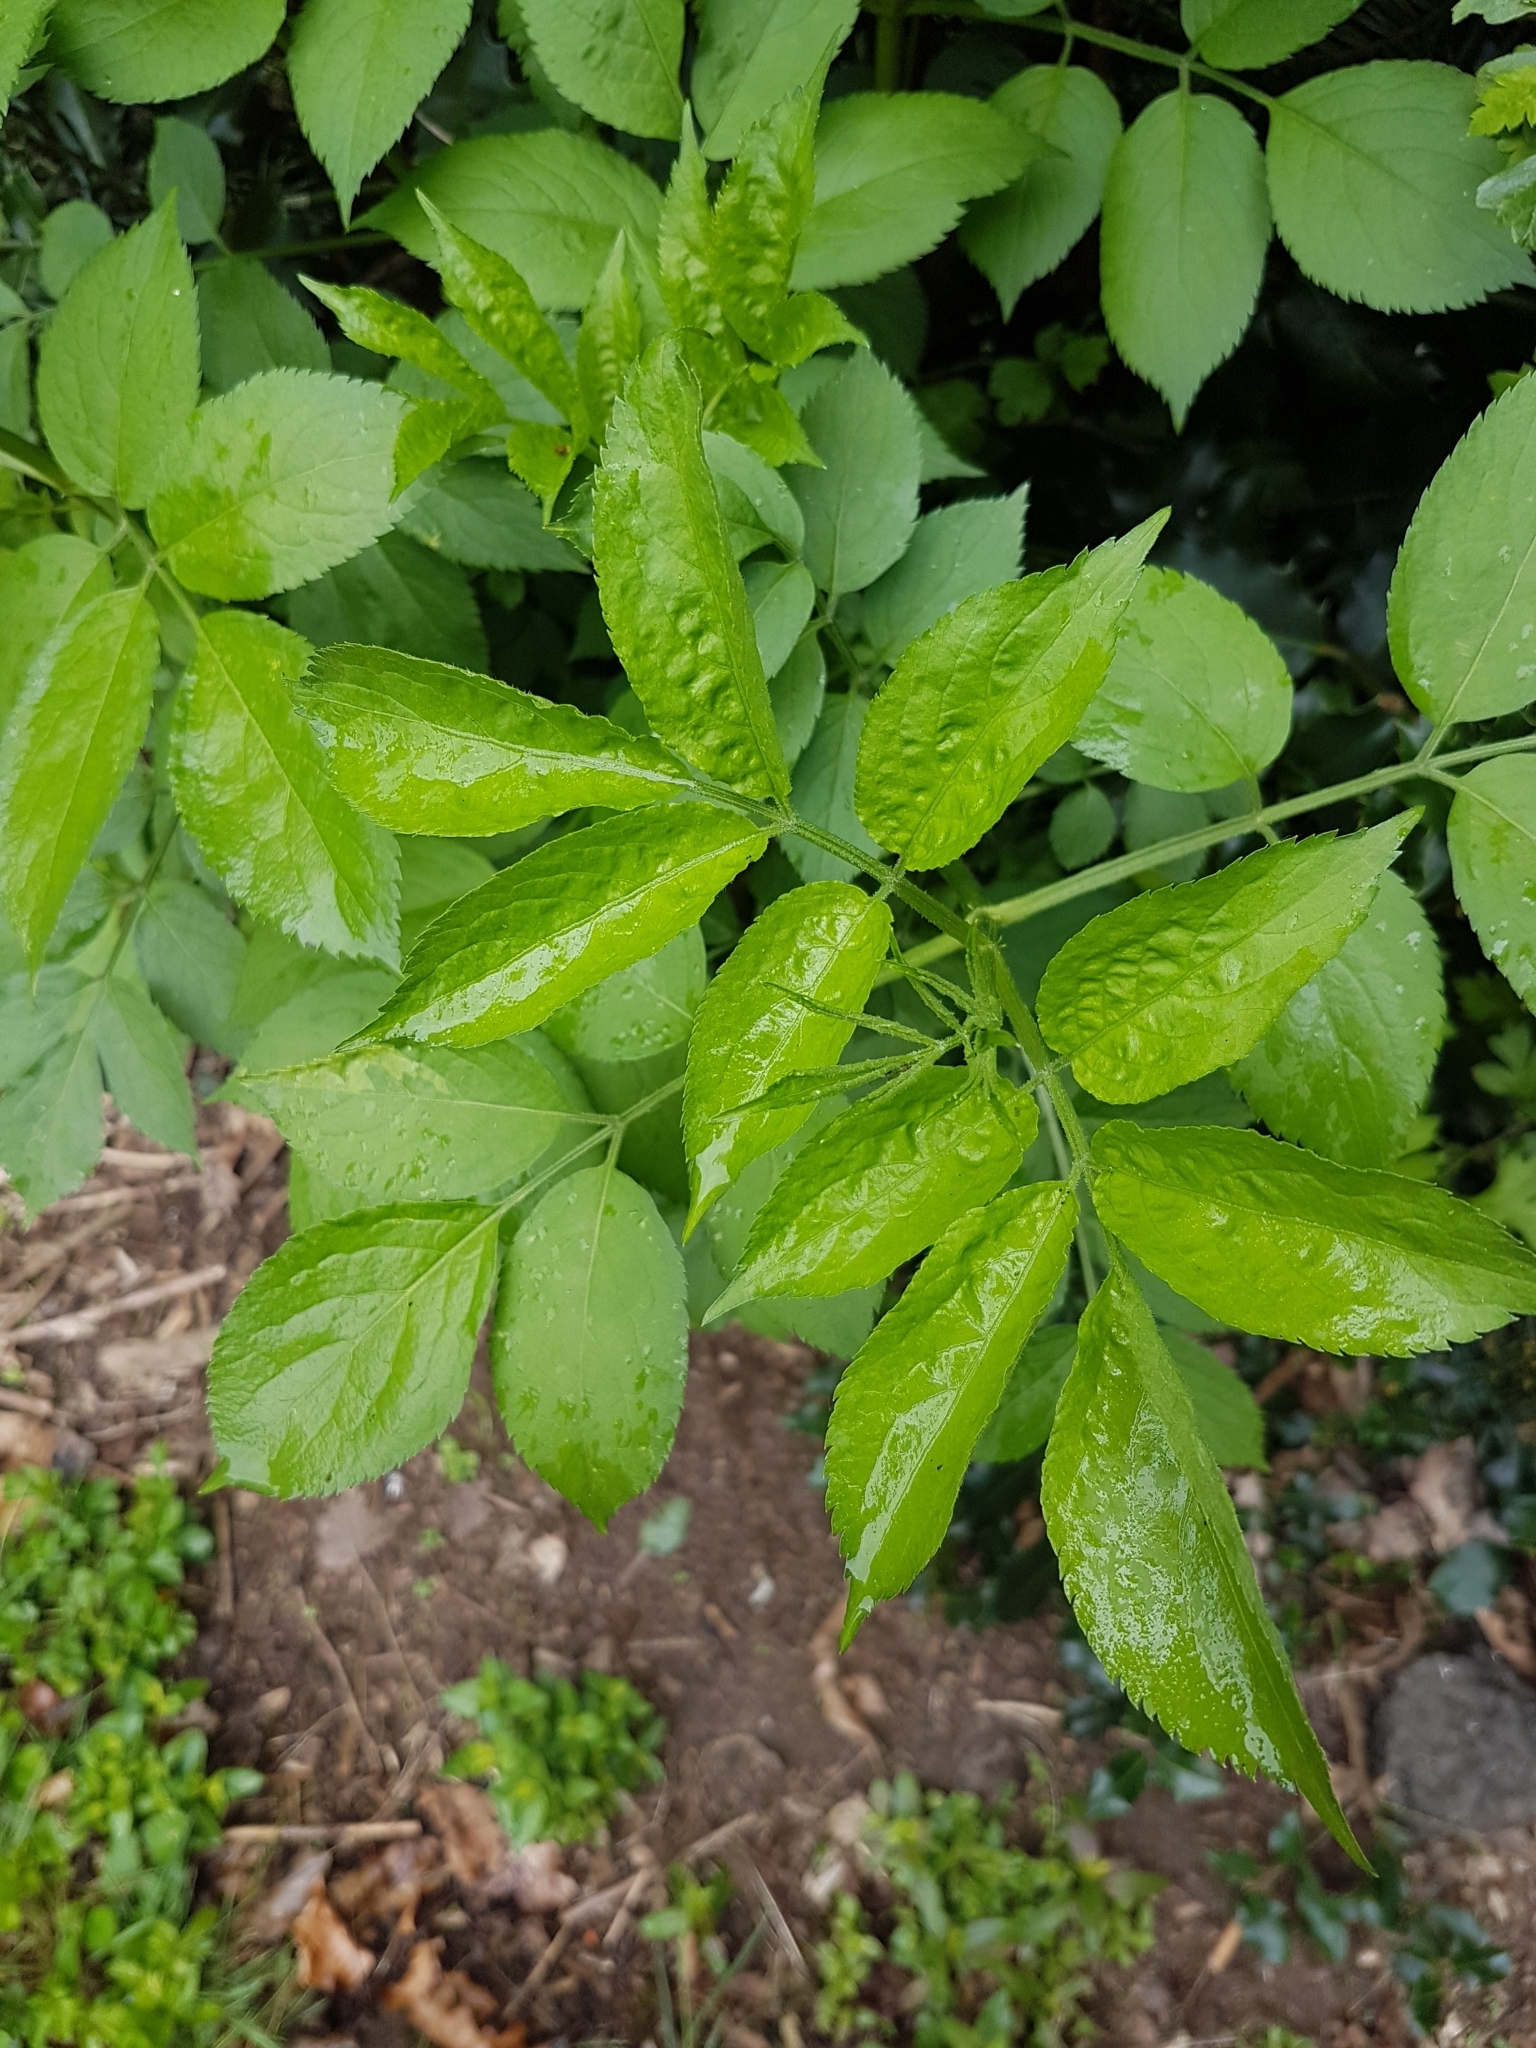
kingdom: Plantae
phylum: Tracheophyta
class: Magnoliopsida
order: Dipsacales
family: Viburnaceae
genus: Sambucus
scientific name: Sambucus nigra
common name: Elder
